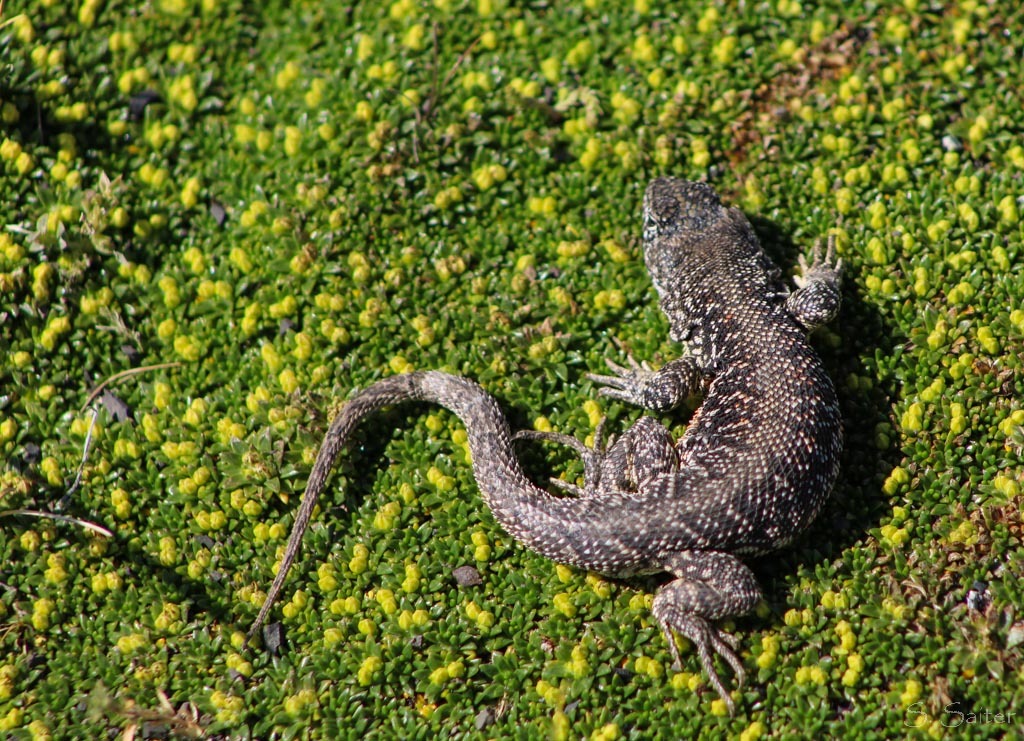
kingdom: Animalia
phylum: Chordata
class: Squamata
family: Liolaemidae
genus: Liolaemus
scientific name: Liolaemus sarmientoi
